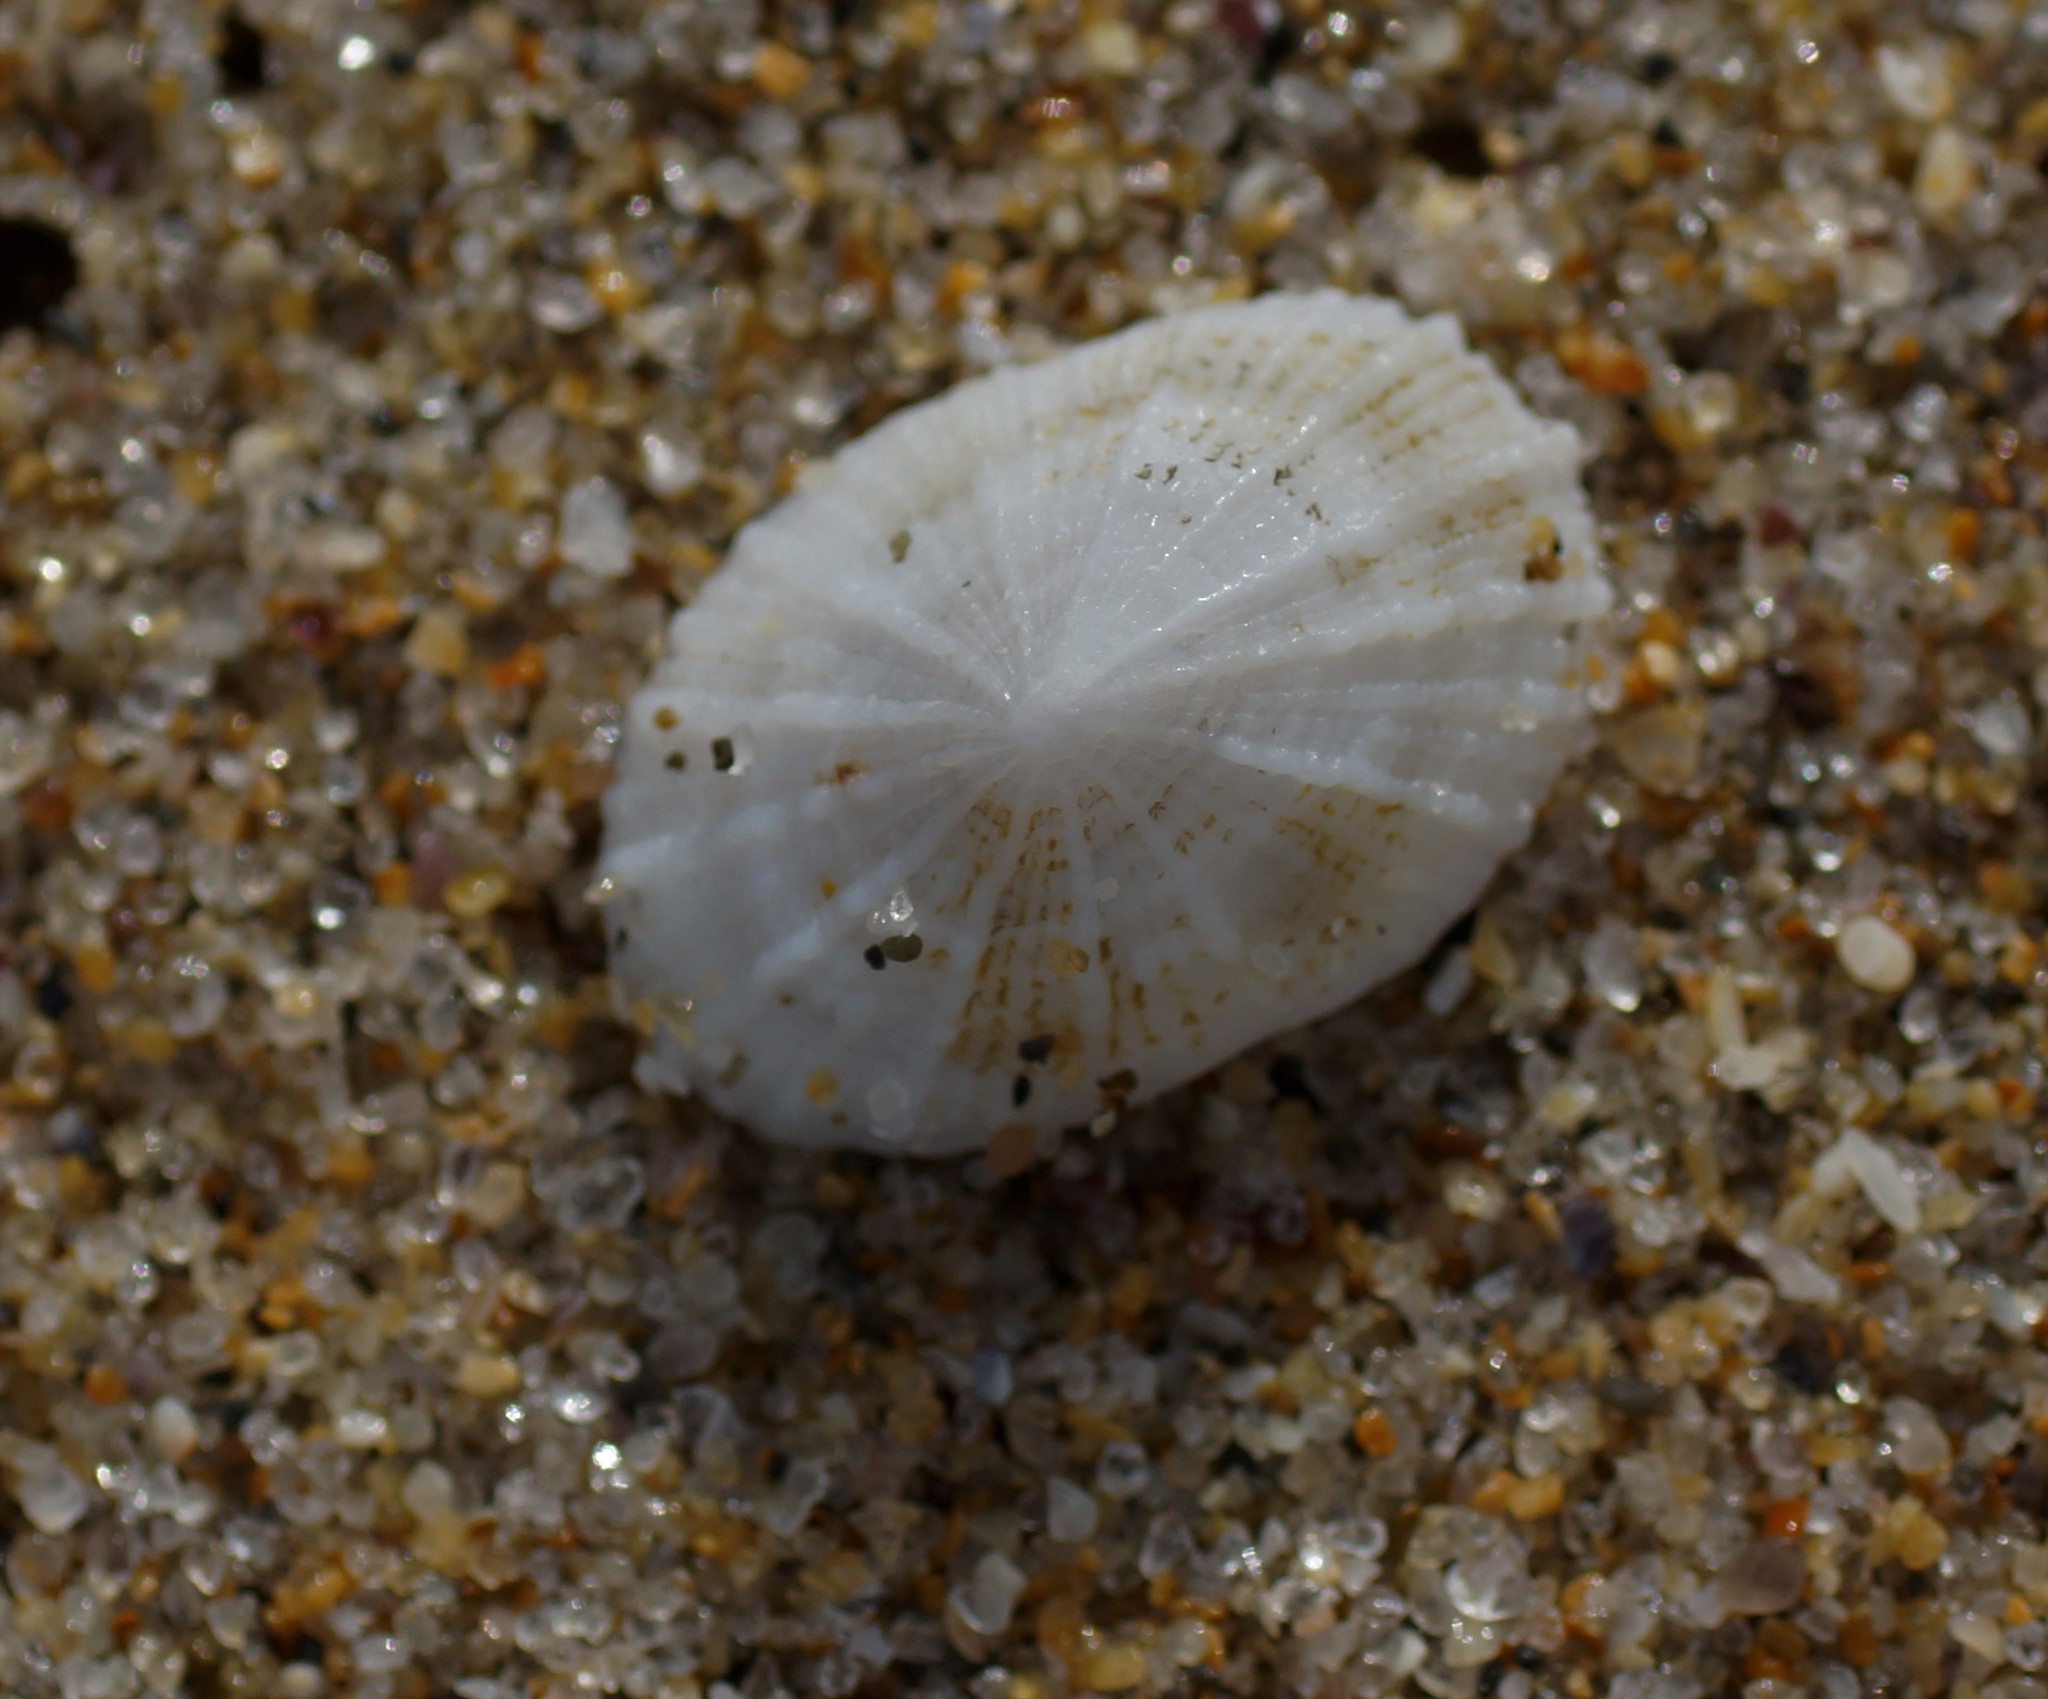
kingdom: Animalia
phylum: Mollusca
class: Gastropoda
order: Lepetellida
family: Fissurellidae
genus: Montfortula
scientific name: Montfortula rugosa
